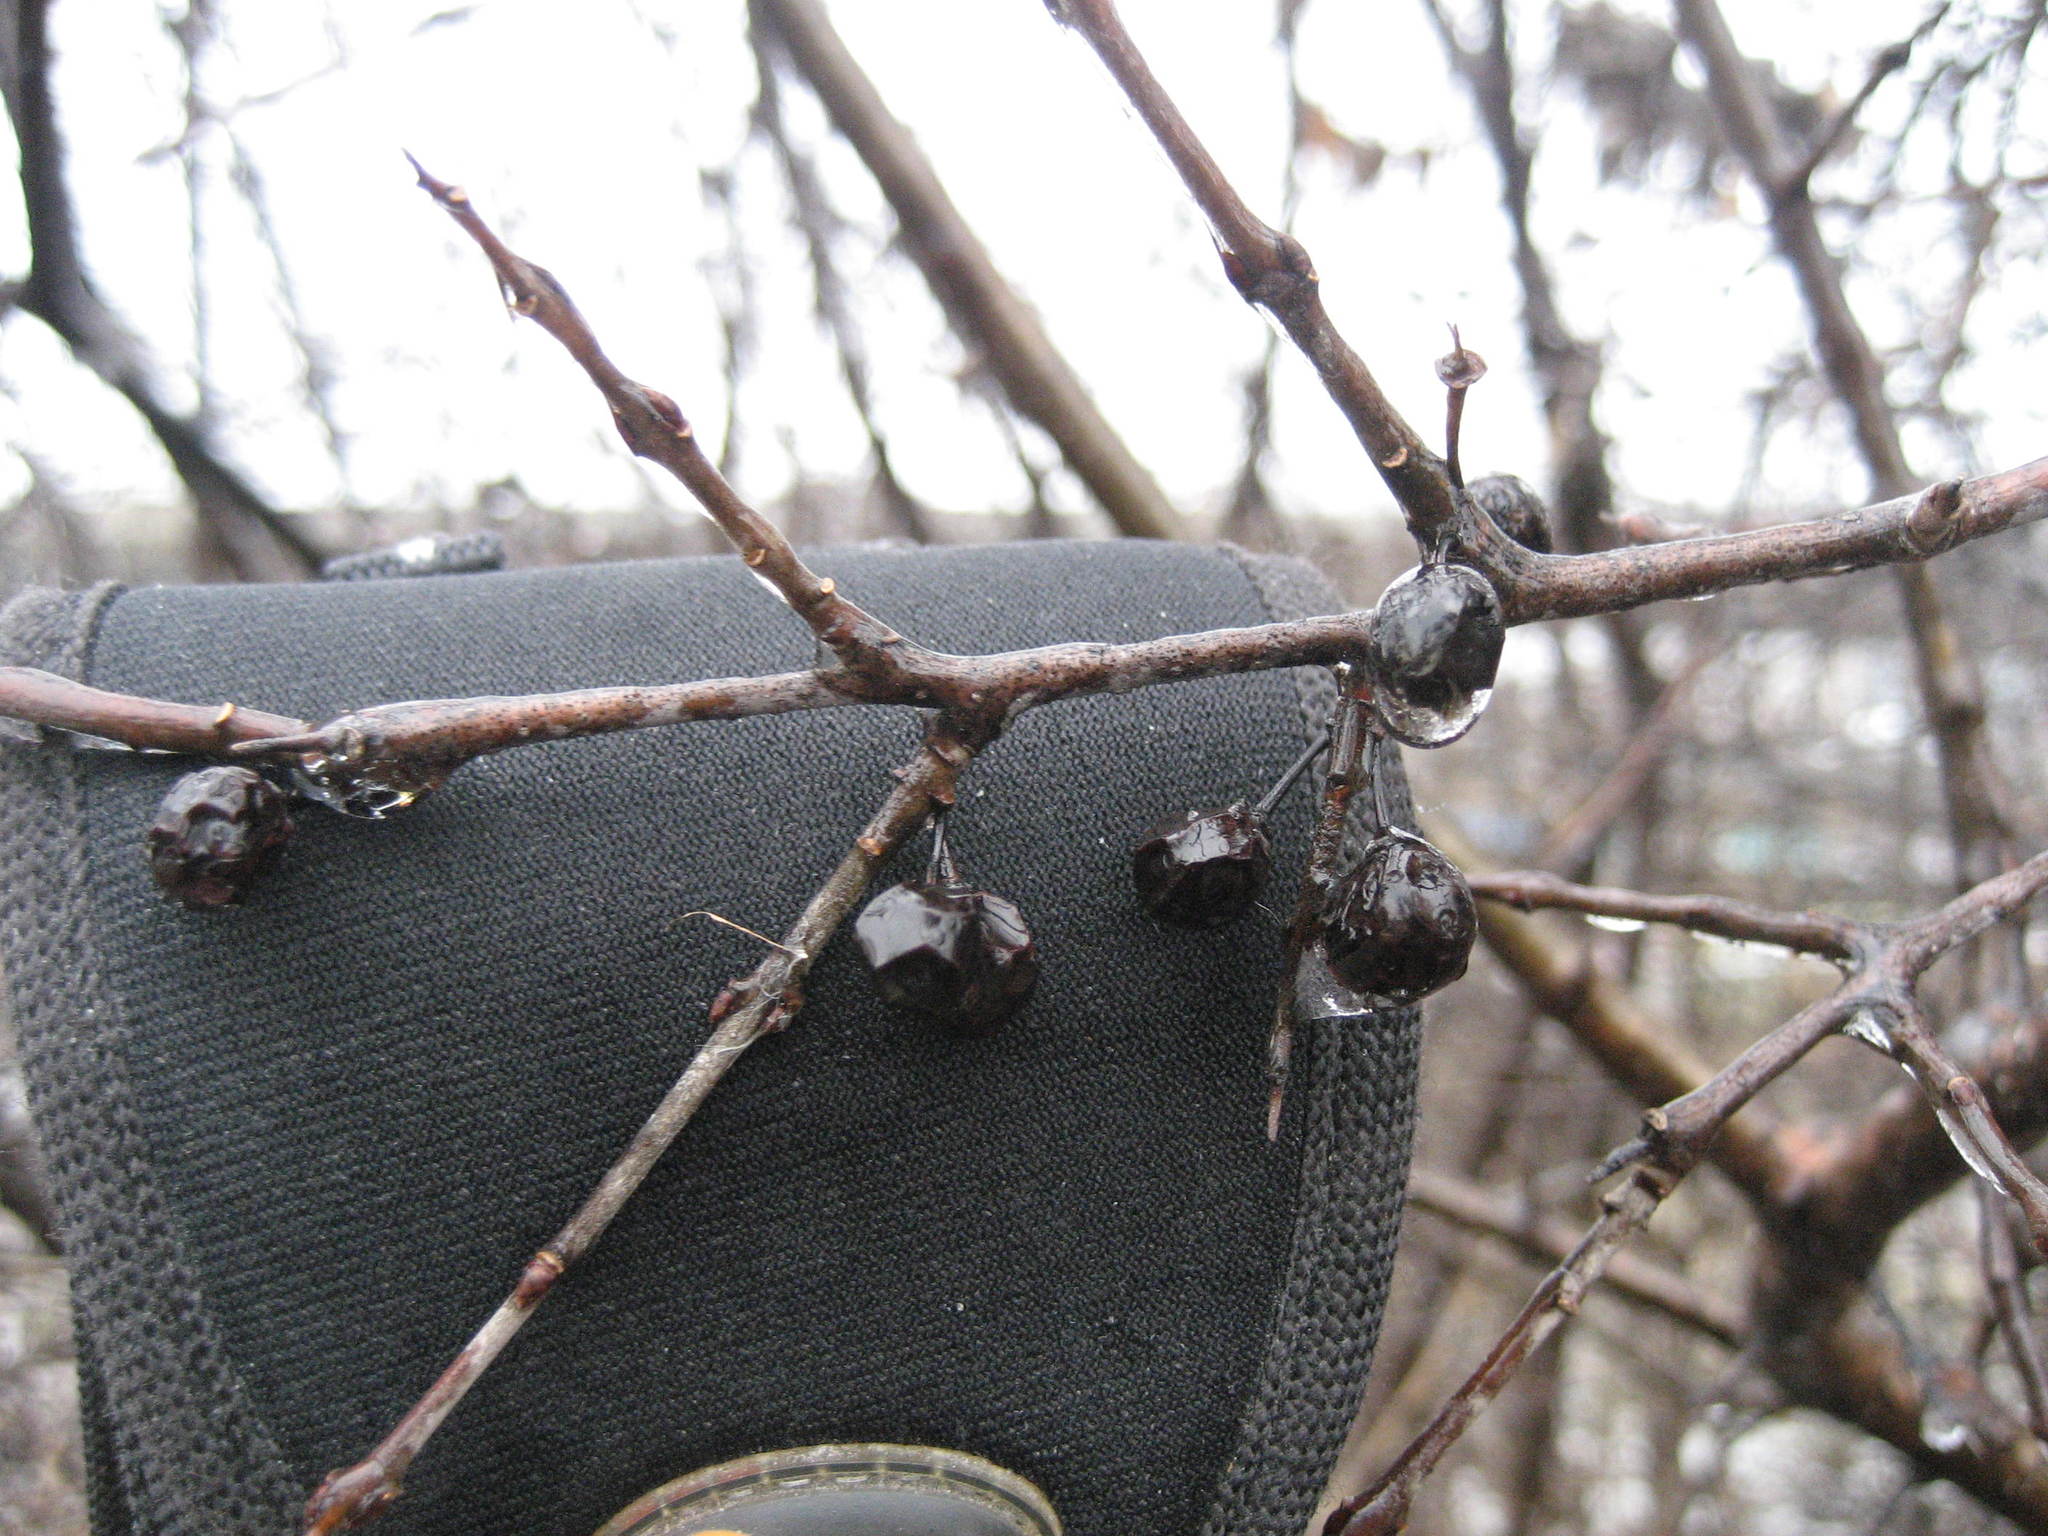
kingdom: Plantae
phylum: Tracheophyta
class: Magnoliopsida
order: Rosales
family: Rhamnaceae
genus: Rhamnus
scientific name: Rhamnus cathartica
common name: Common buckthorn
